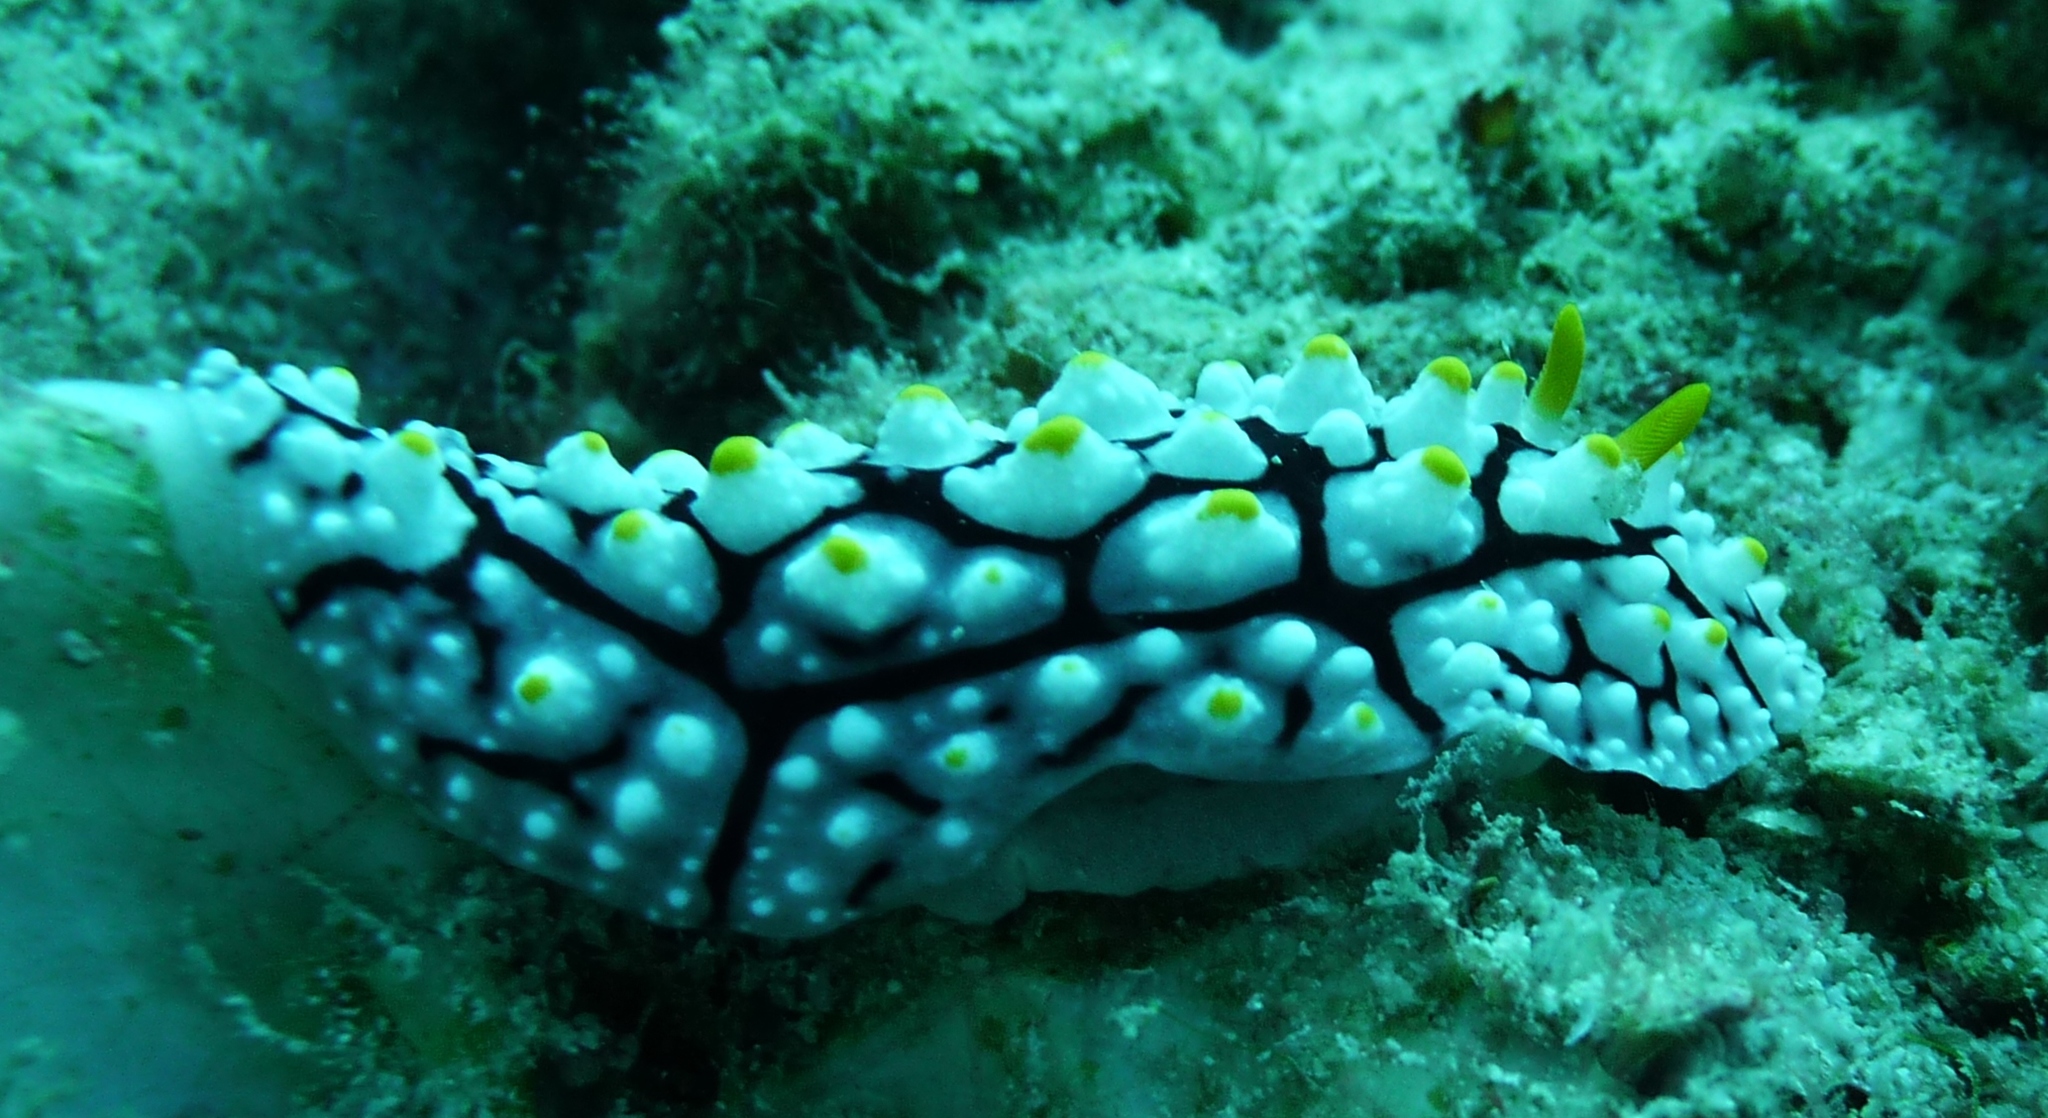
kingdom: Animalia
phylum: Mollusca
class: Gastropoda
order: Nudibranchia
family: Phyllidiidae
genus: Phyllidia
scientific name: Phyllidia elegans
